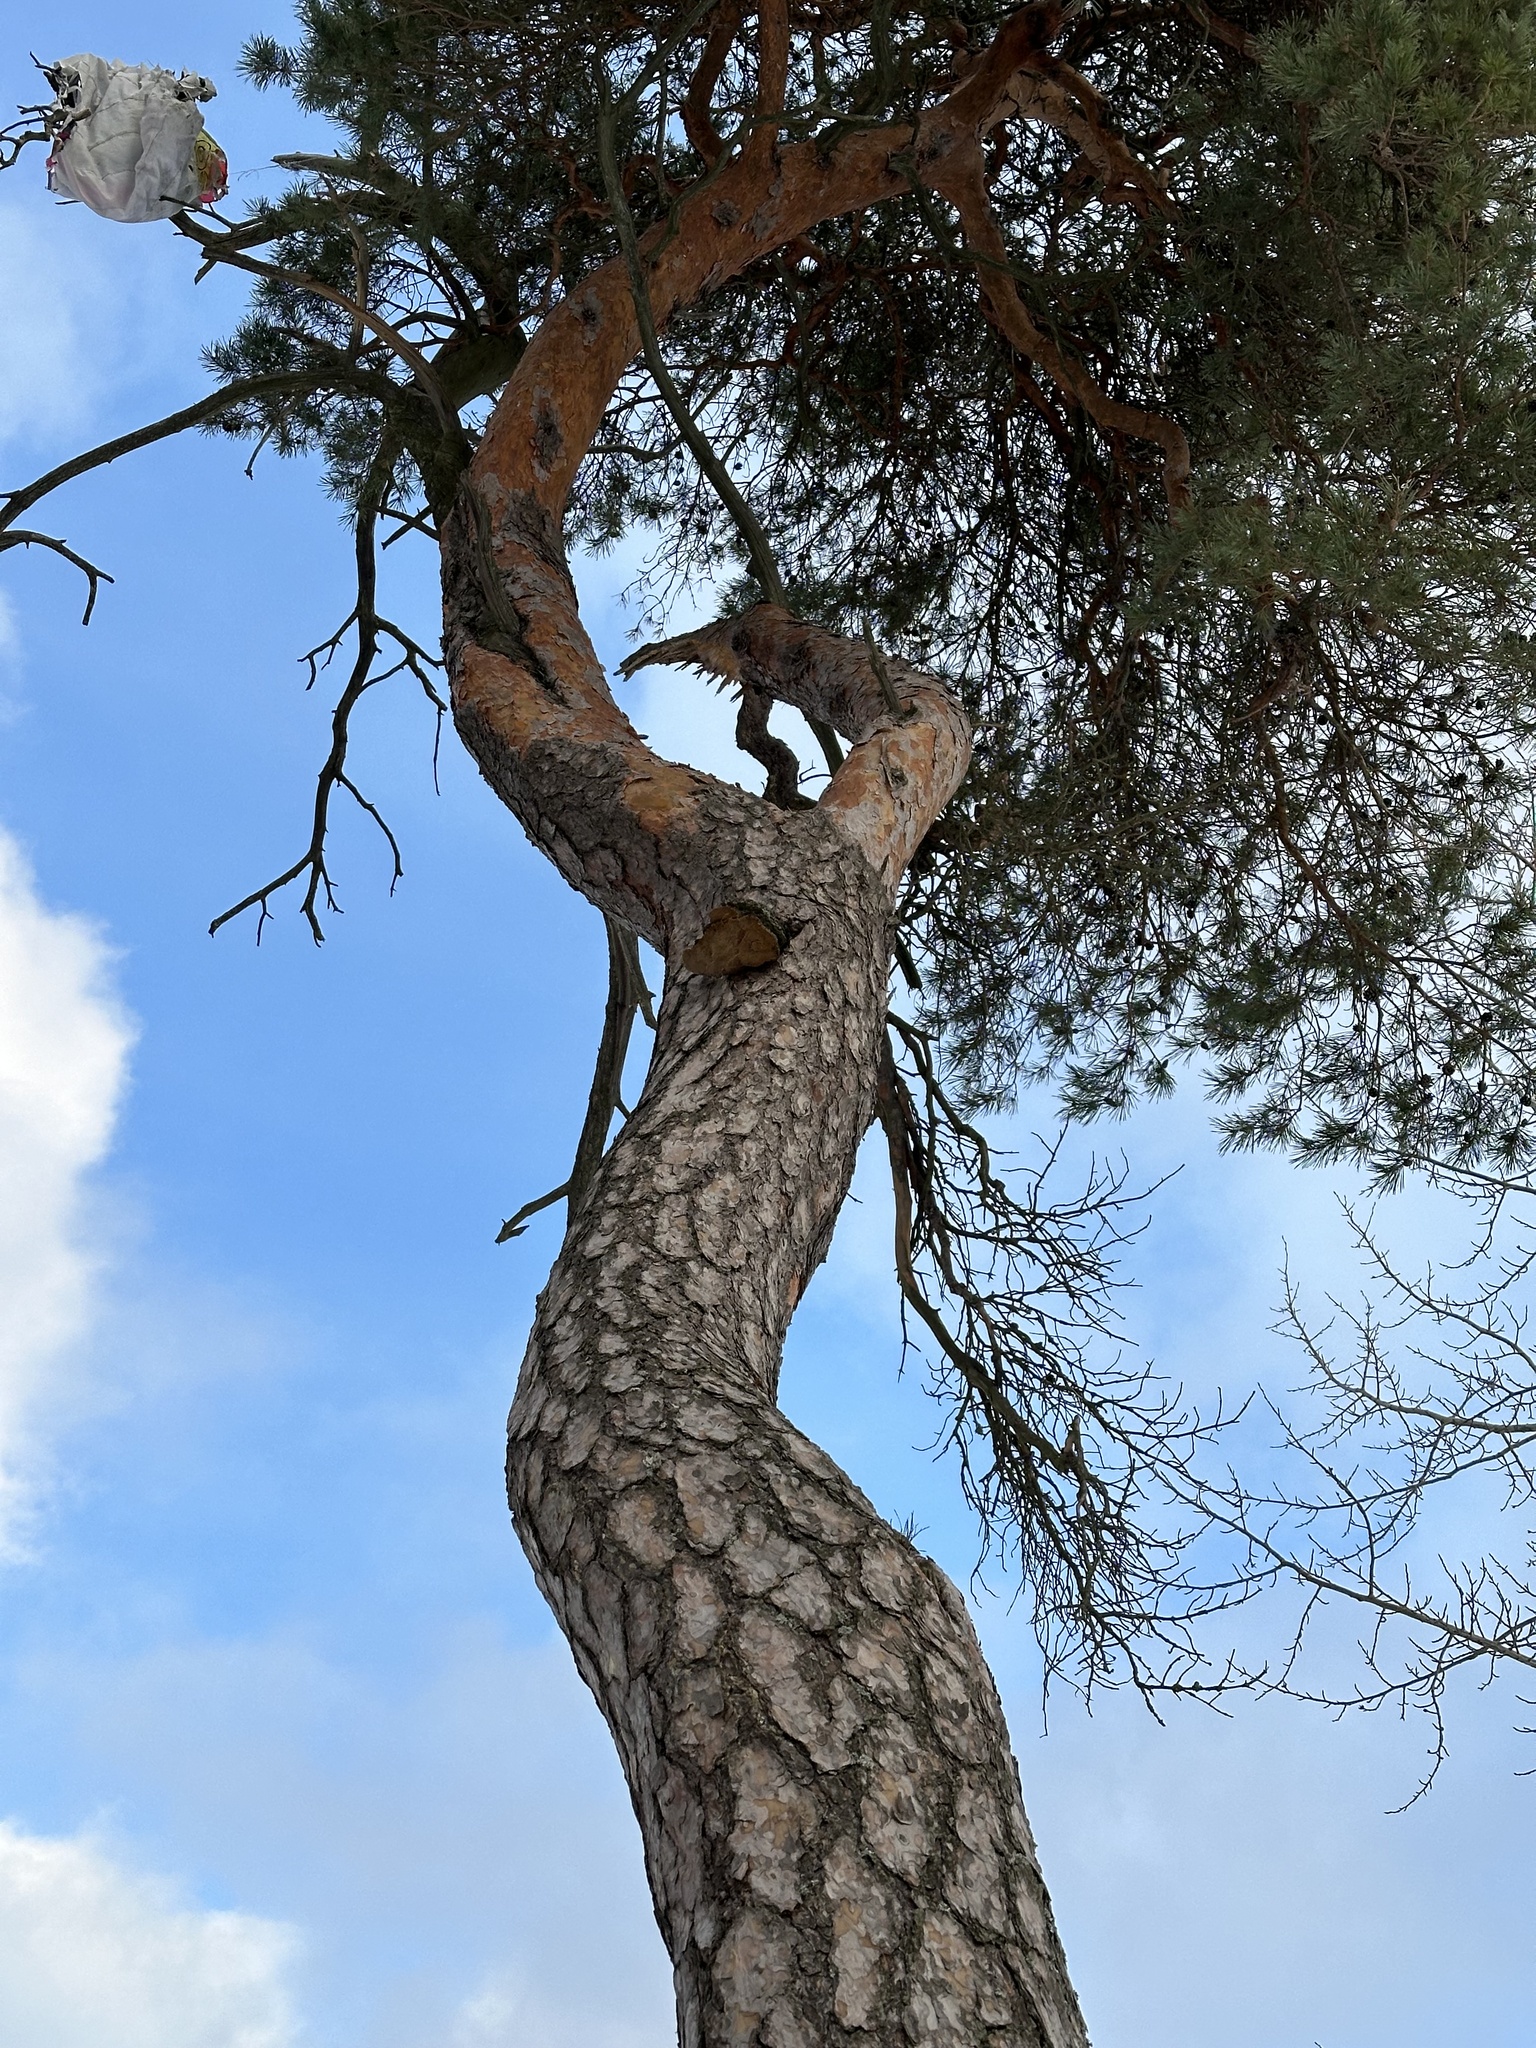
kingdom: Plantae
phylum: Tracheophyta
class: Pinopsida
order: Pinales
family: Pinaceae
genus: Pinus
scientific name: Pinus sylvestris
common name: Scots pine
